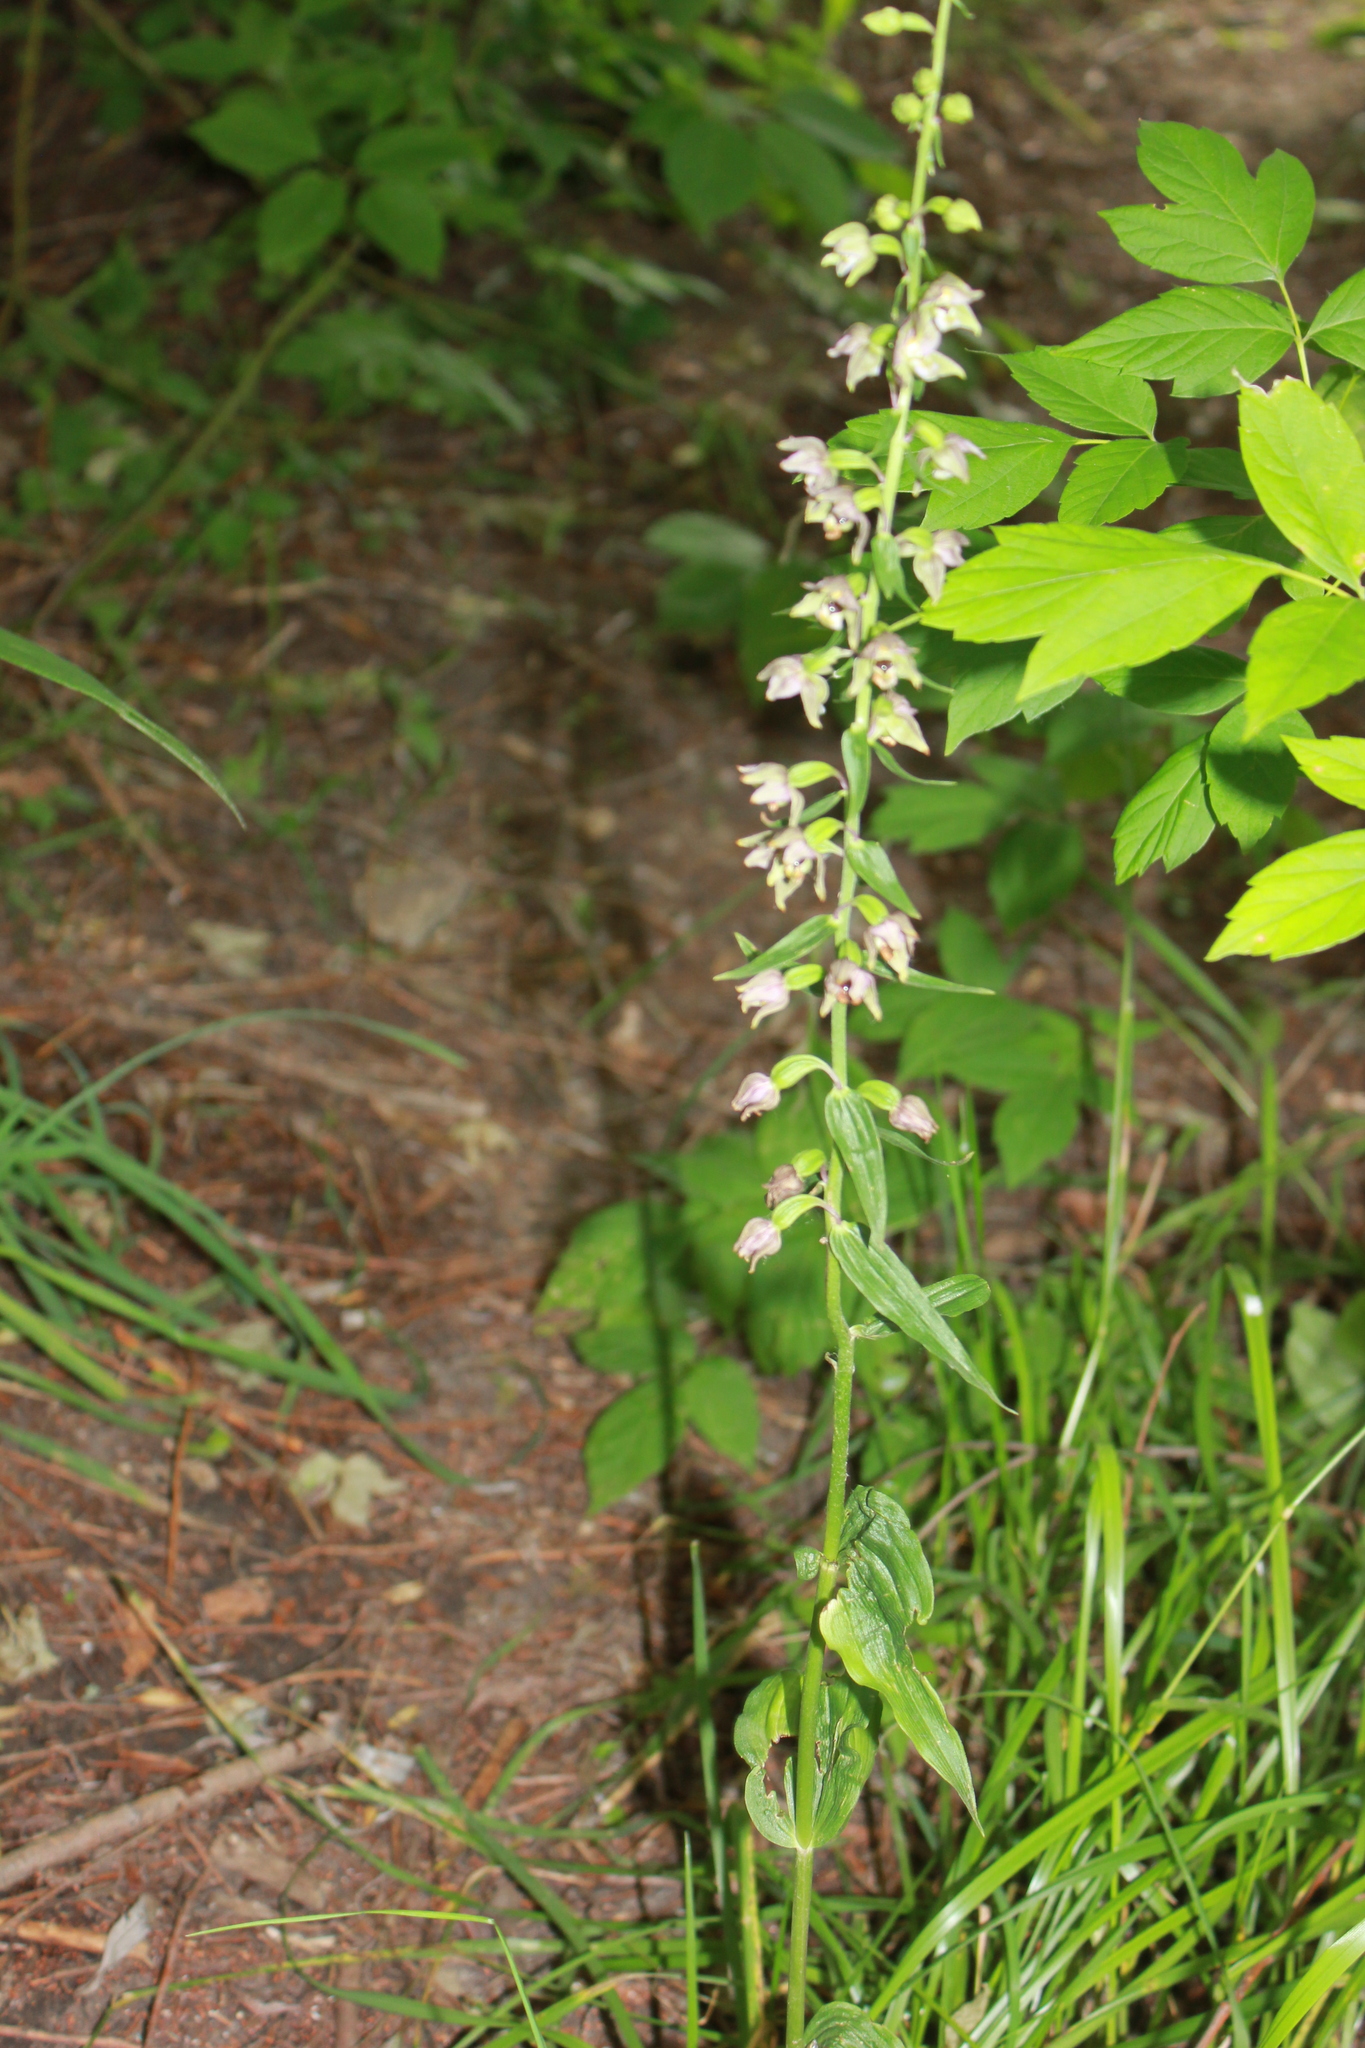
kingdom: Plantae
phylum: Tracheophyta
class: Liliopsida
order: Asparagales
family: Orchidaceae
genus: Epipactis
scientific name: Epipactis helleborine
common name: Broad-leaved helleborine
